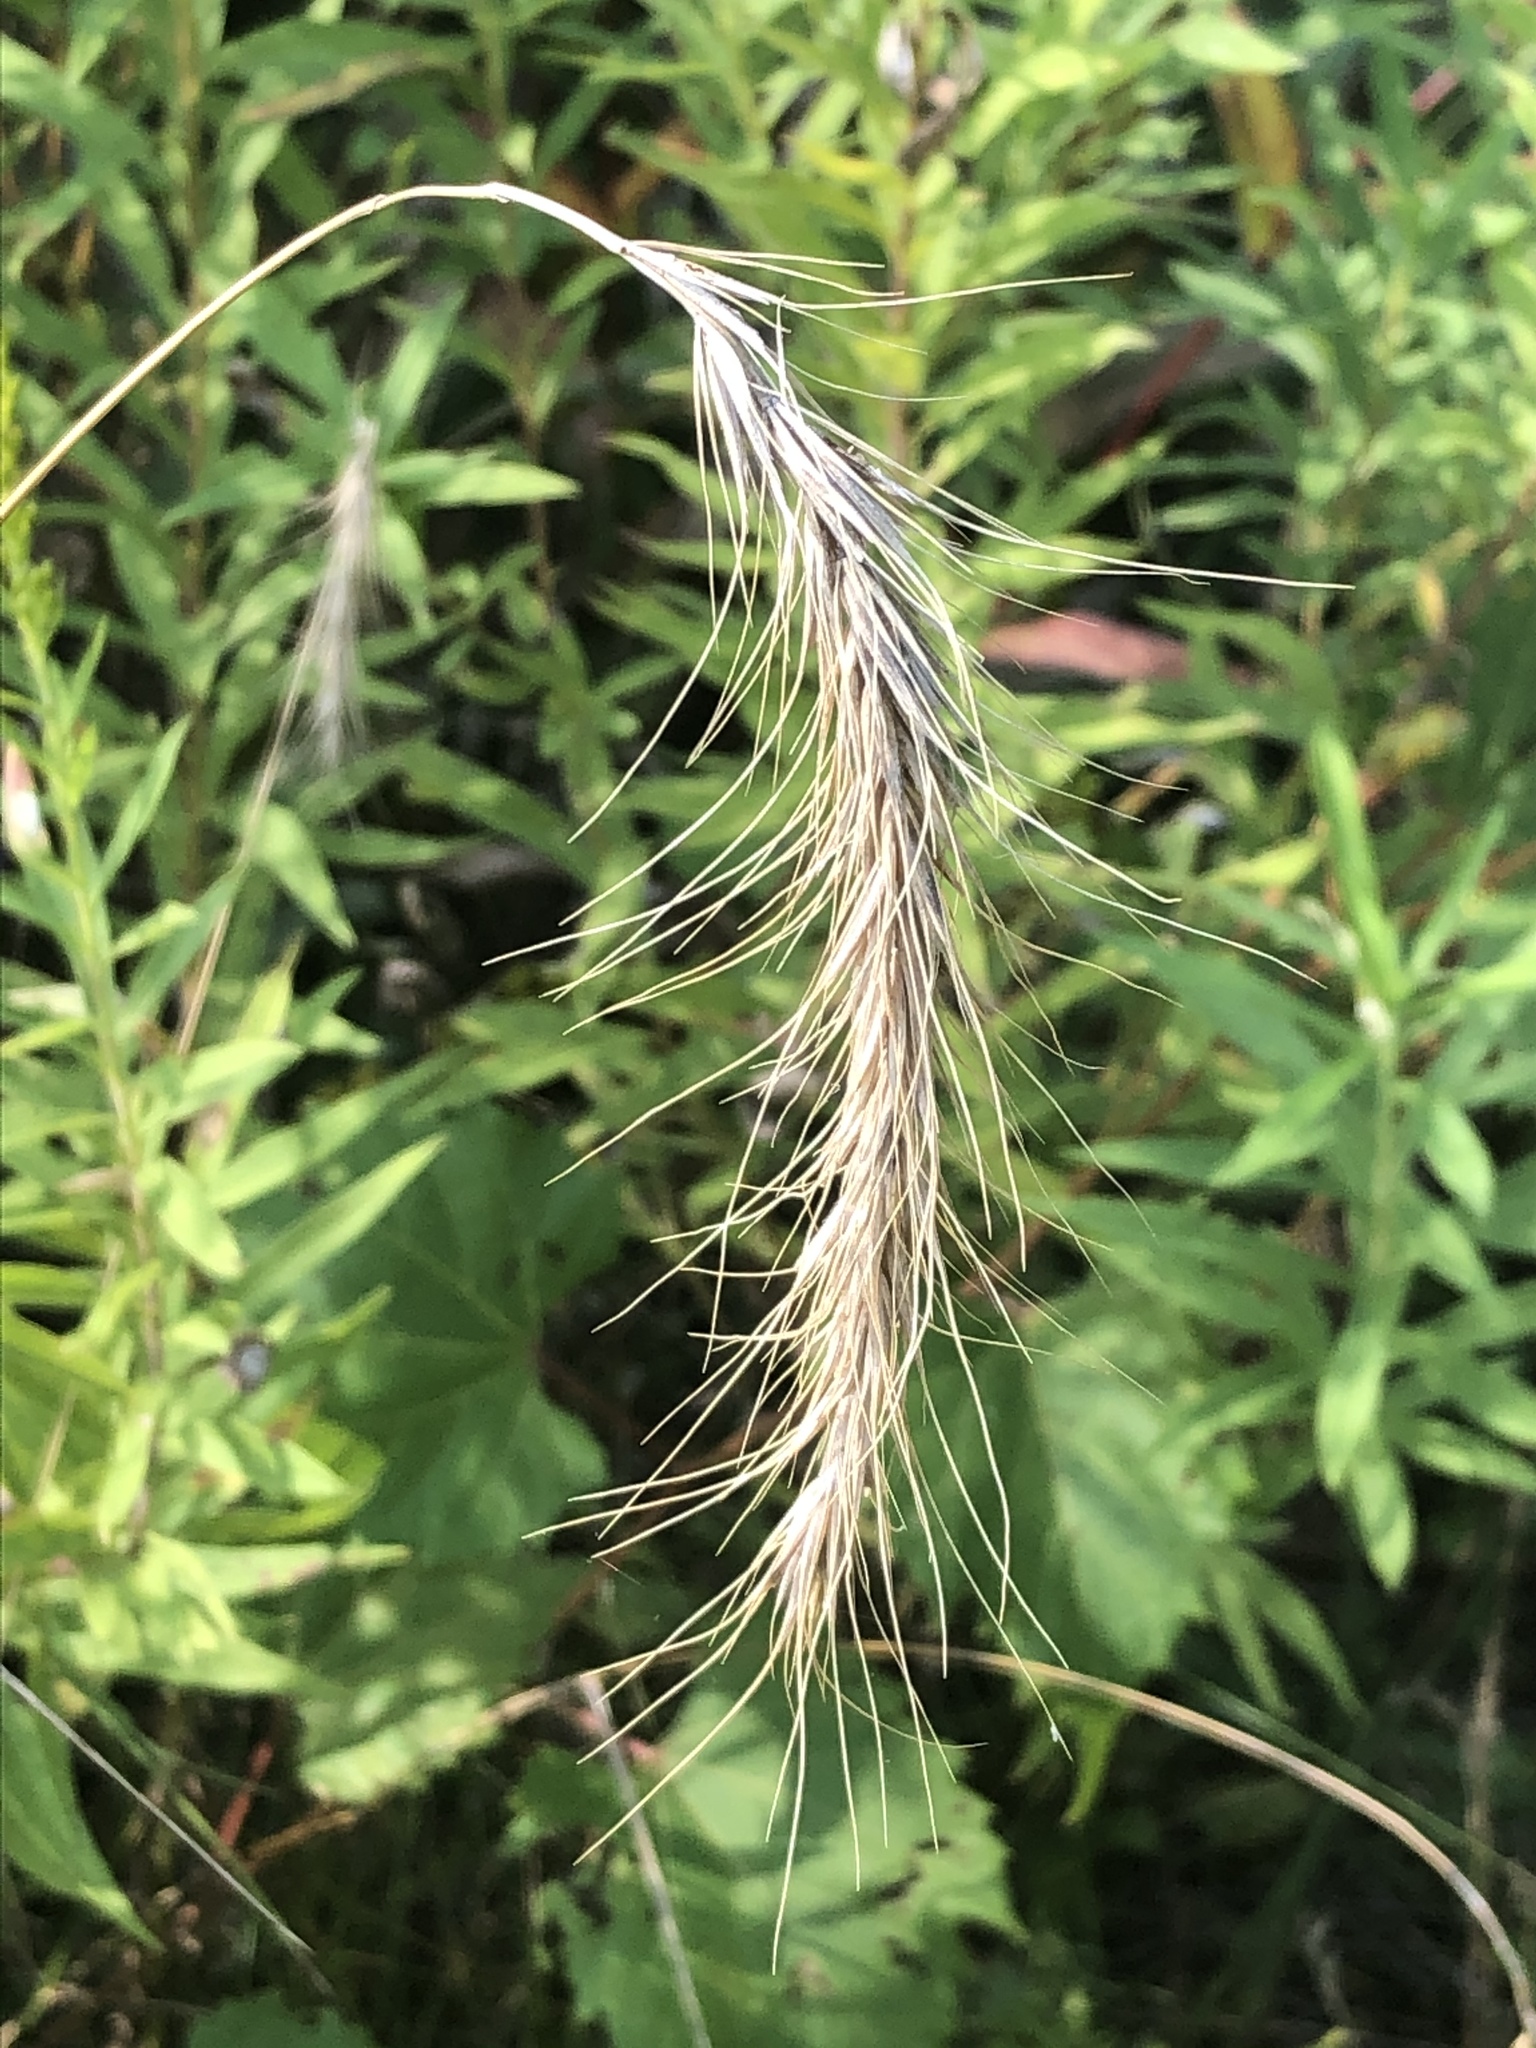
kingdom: Plantae
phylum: Tracheophyta
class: Liliopsida
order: Poales
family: Poaceae
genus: Elymus
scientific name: Elymus canadensis
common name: Canada wild rye
